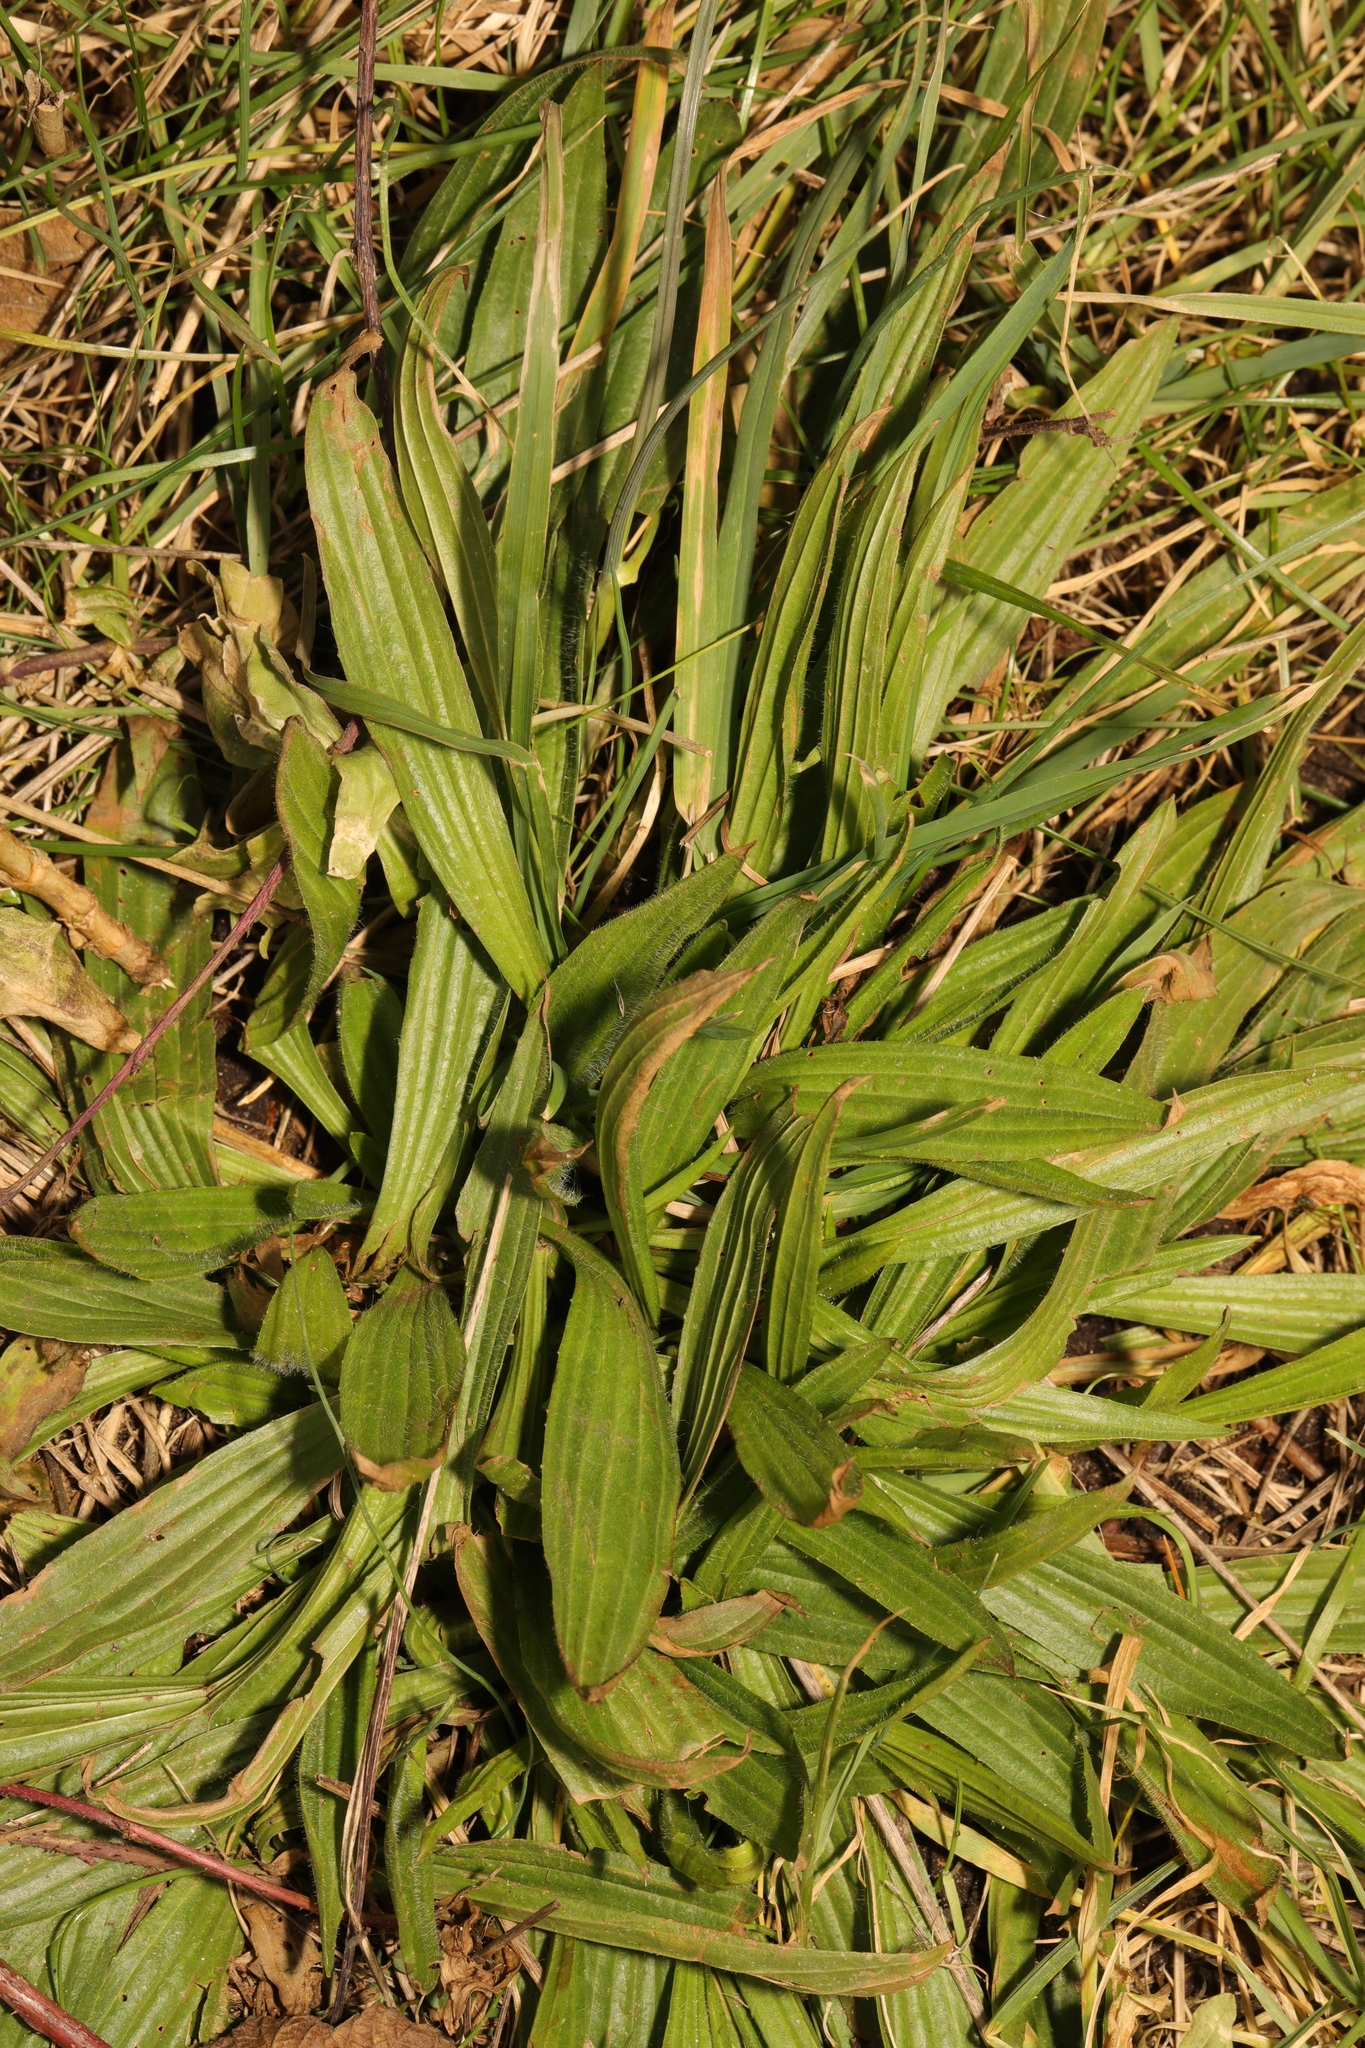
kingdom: Plantae
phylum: Tracheophyta
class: Magnoliopsida
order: Lamiales
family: Plantaginaceae
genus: Plantago
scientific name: Plantago lanceolata
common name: Ribwort plantain
